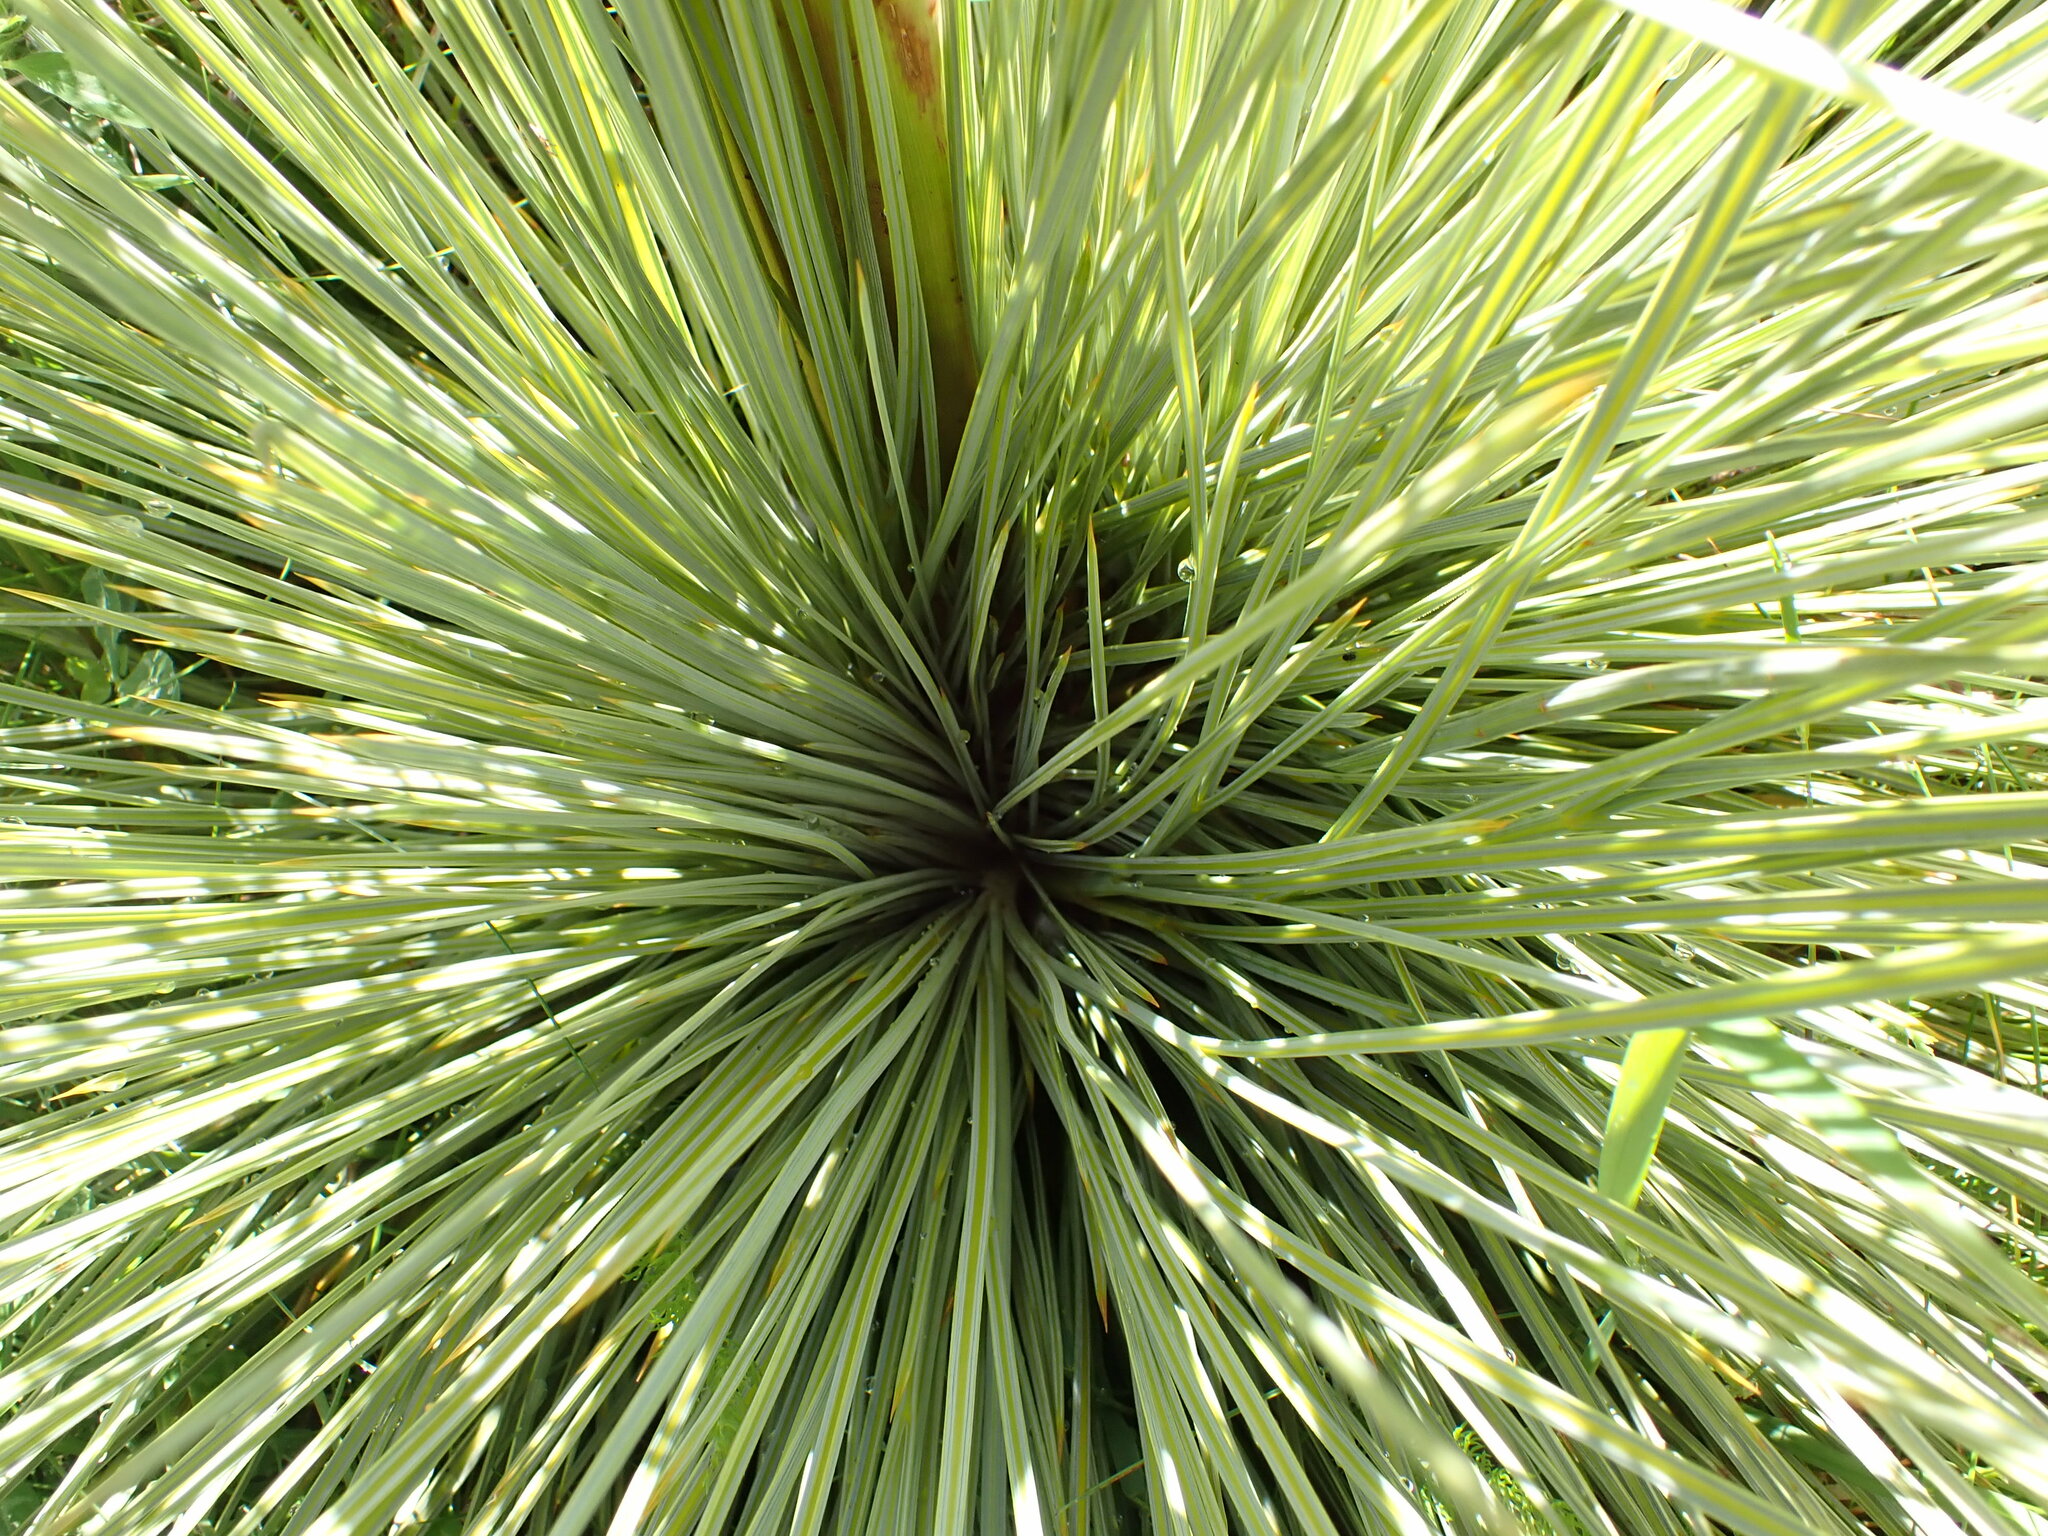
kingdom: Plantae
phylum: Tracheophyta
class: Magnoliopsida
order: Apiales
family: Apiaceae
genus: Aciphylla
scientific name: Aciphylla subflabellata
